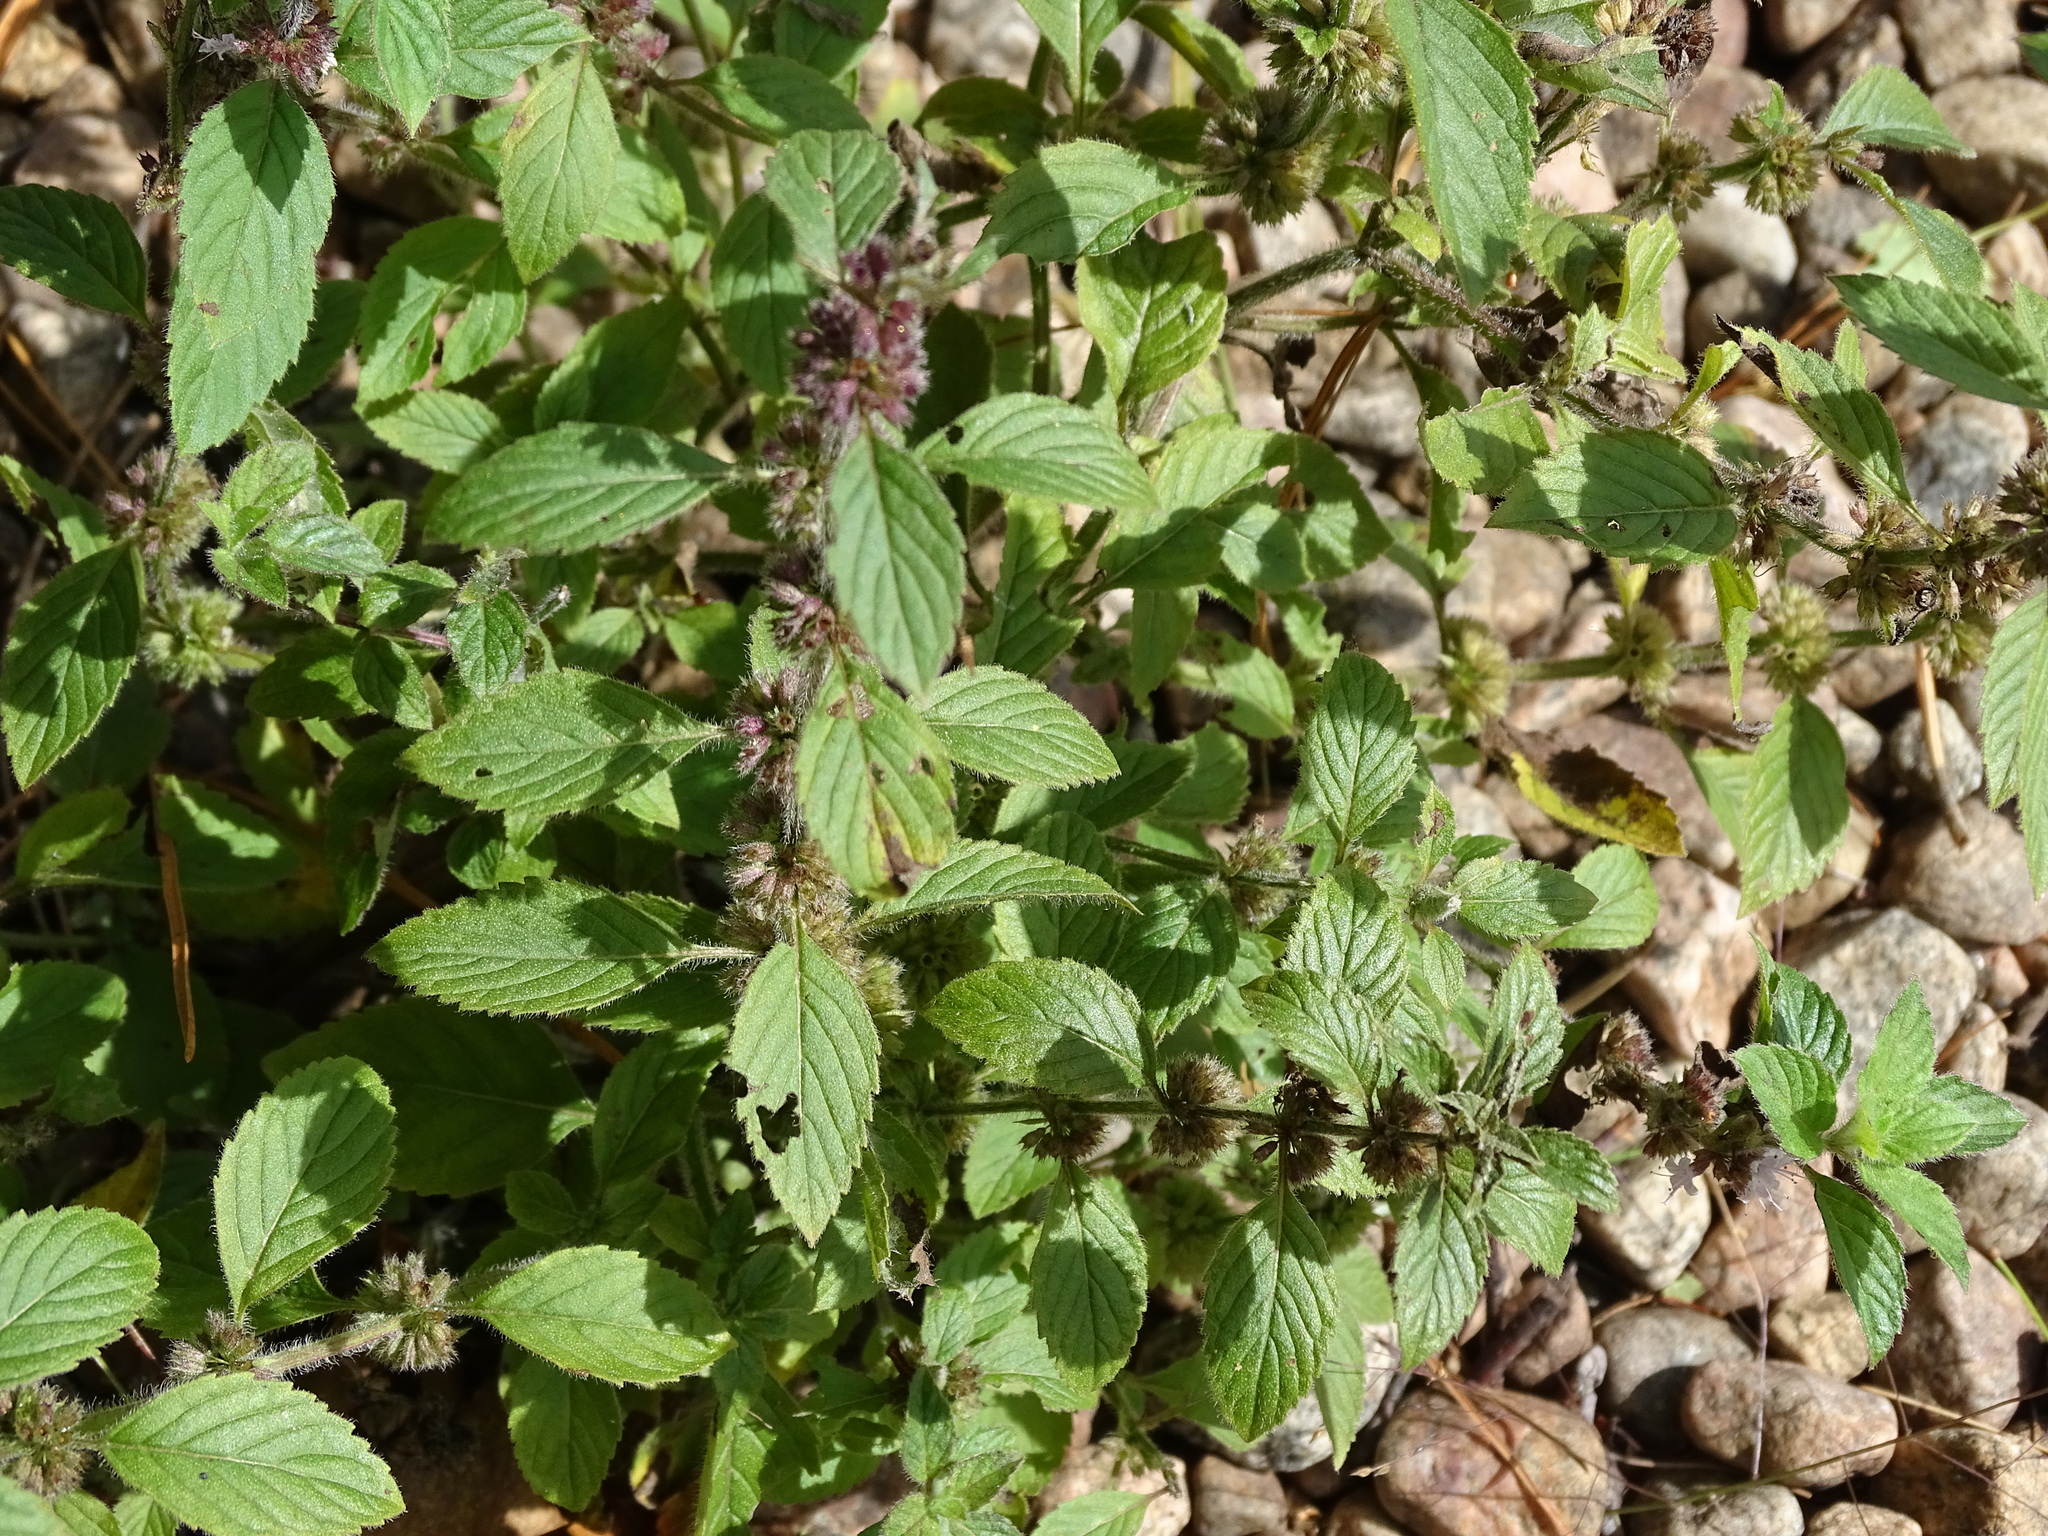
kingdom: Plantae
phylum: Tracheophyta
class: Magnoliopsida
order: Lamiales
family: Lamiaceae
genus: Mentha
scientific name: Mentha canadensis
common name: American corn mint
